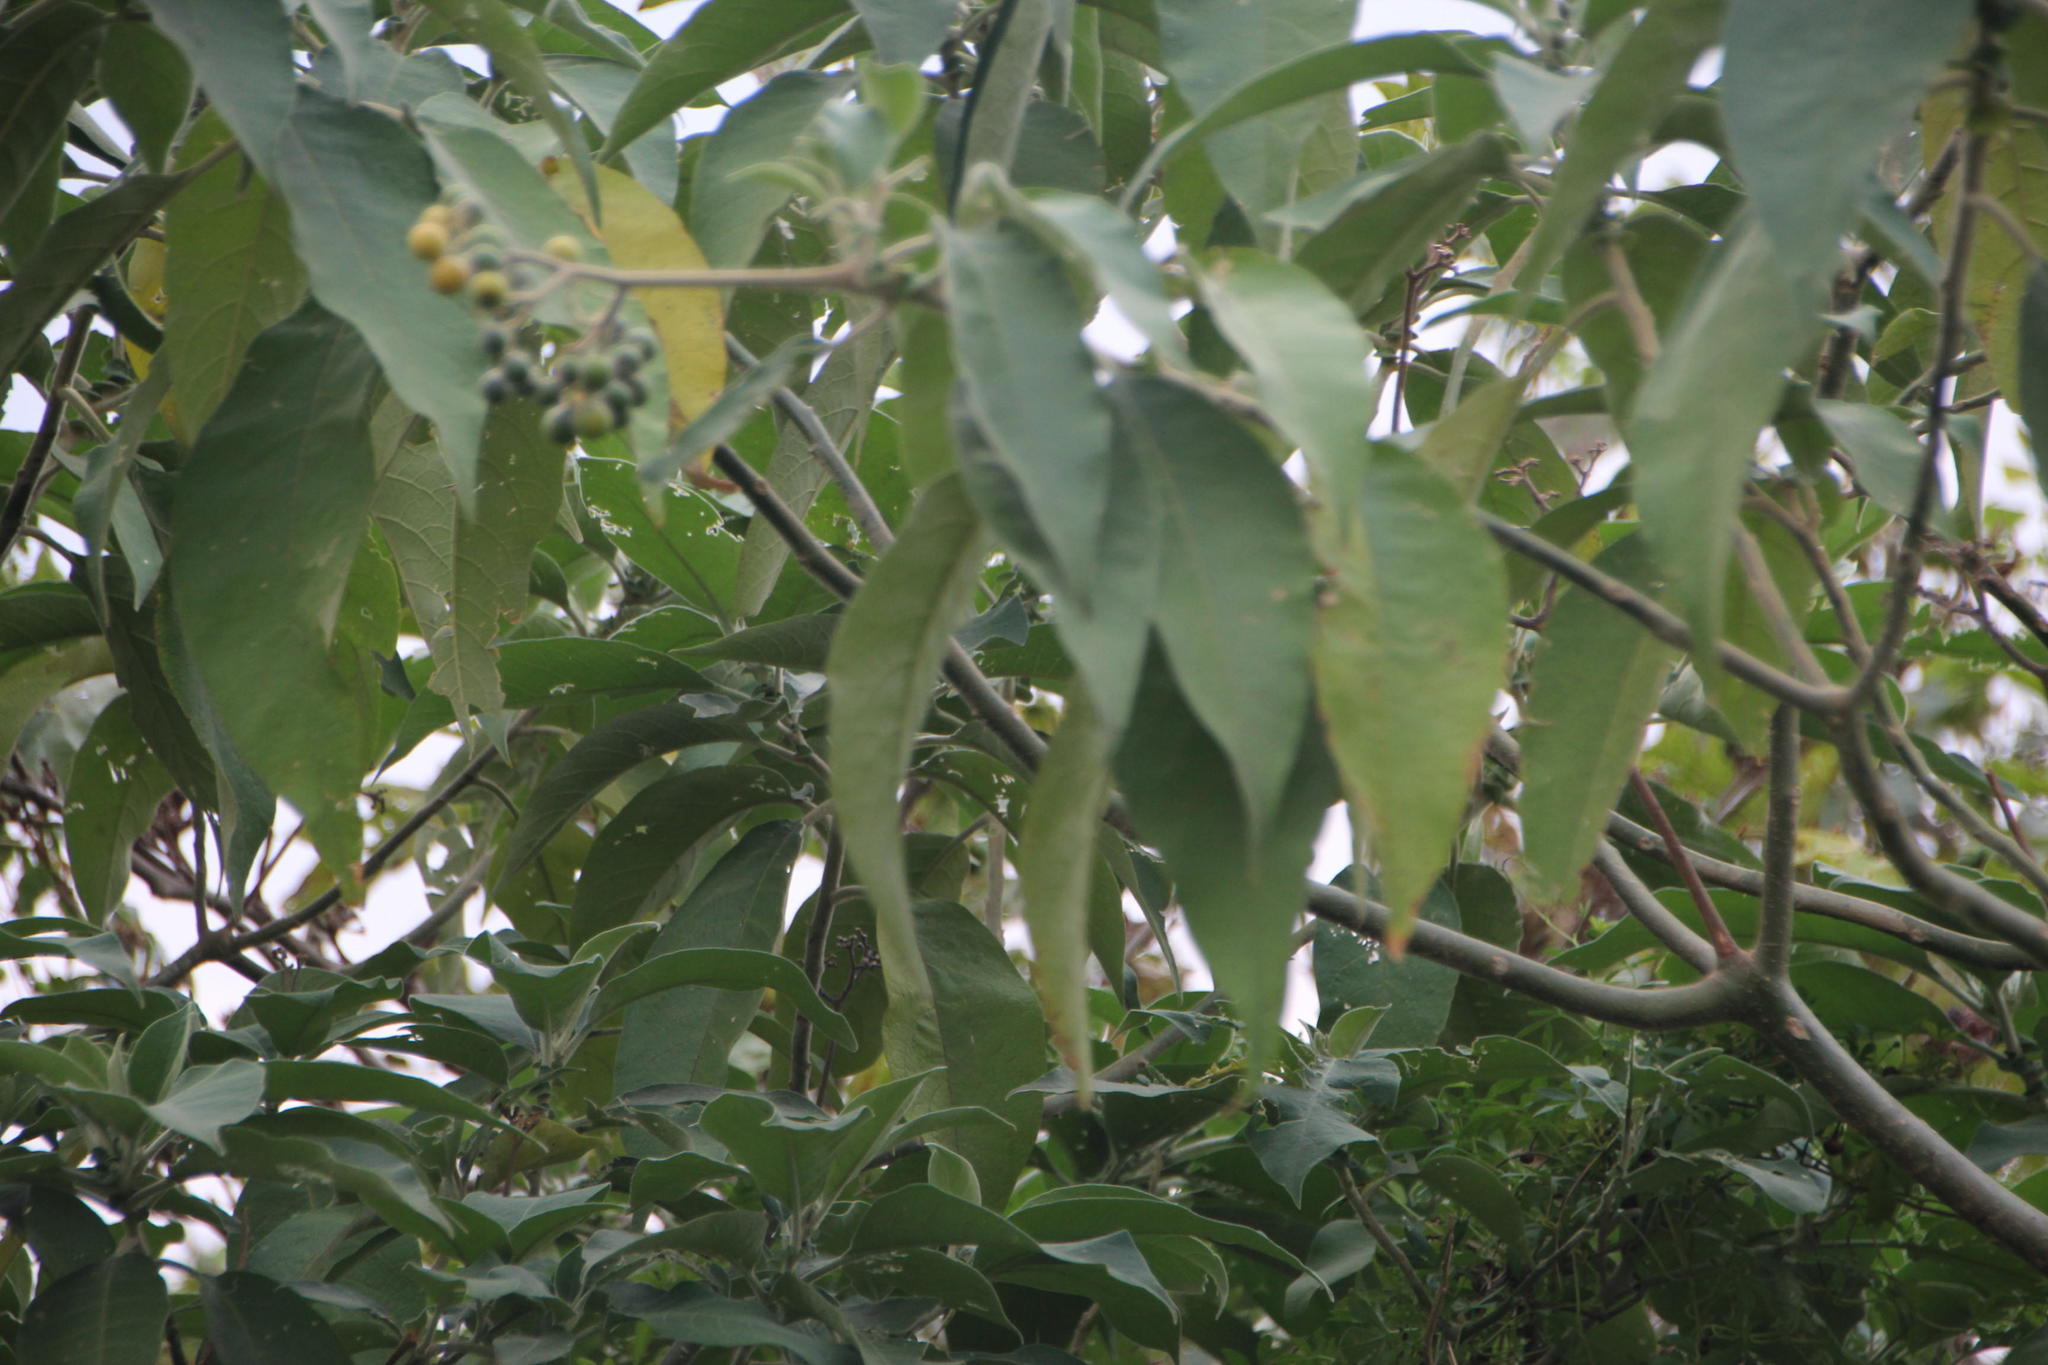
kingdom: Plantae
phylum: Tracheophyta
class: Magnoliopsida
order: Solanales
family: Solanaceae
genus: Solanum
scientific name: Solanum mauritianum
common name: Earleaf nightshade
